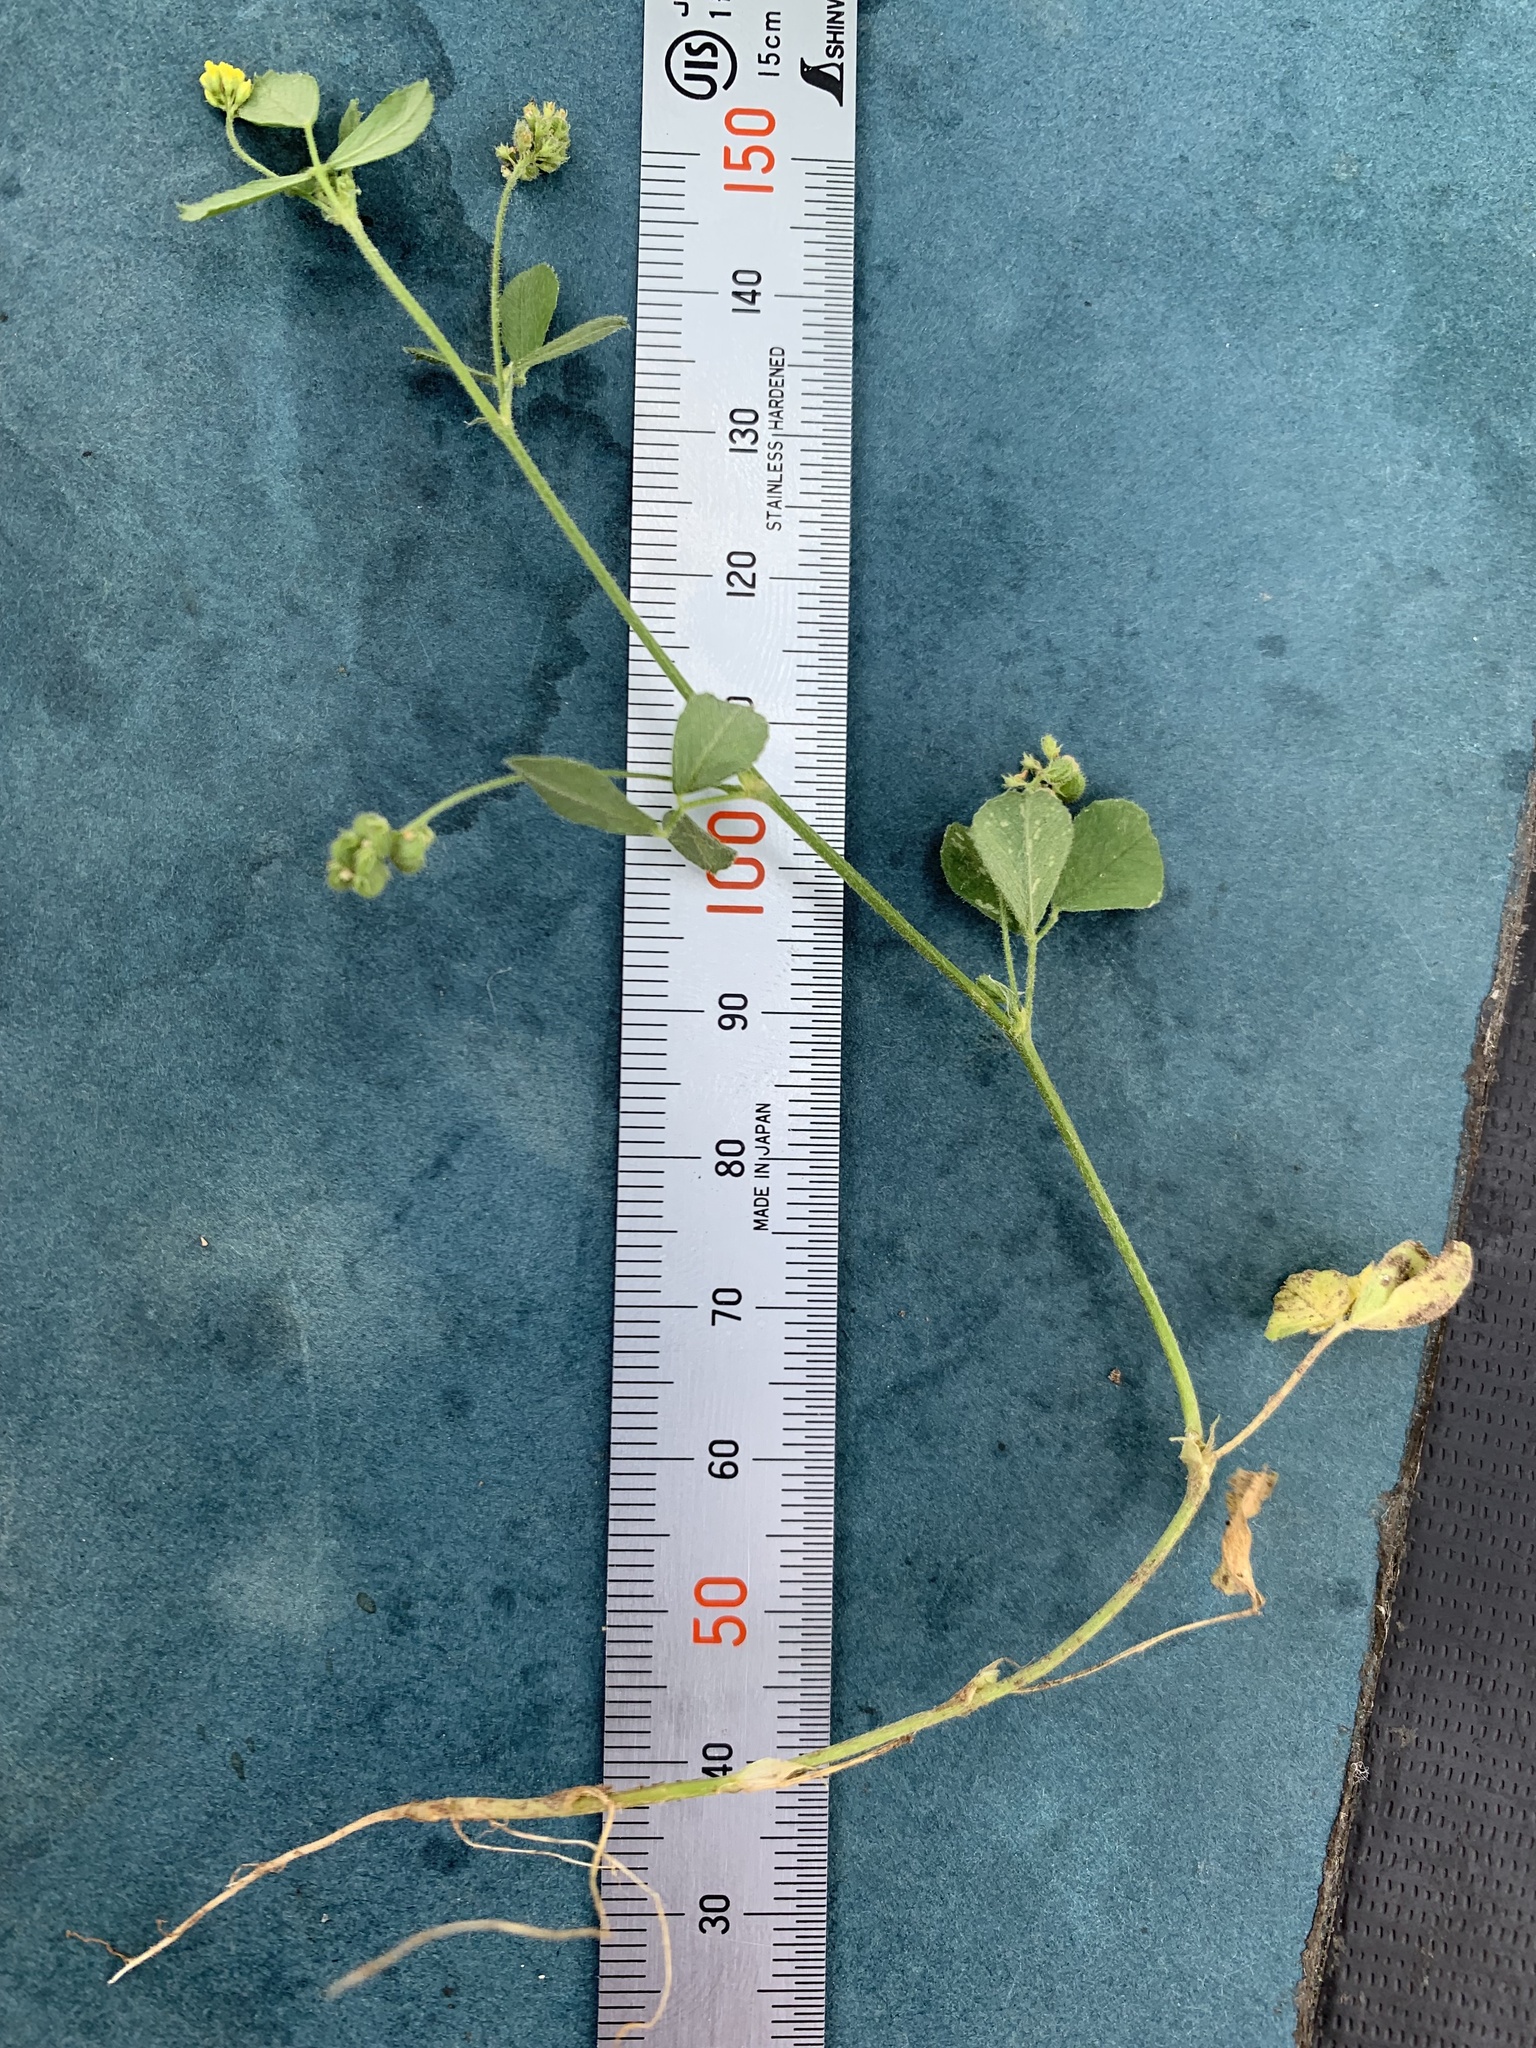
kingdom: Plantae
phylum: Tracheophyta
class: Magnoliopsida
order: Fabales
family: Fabaceae
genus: Medicago
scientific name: Medicago lupulina
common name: Black medick
